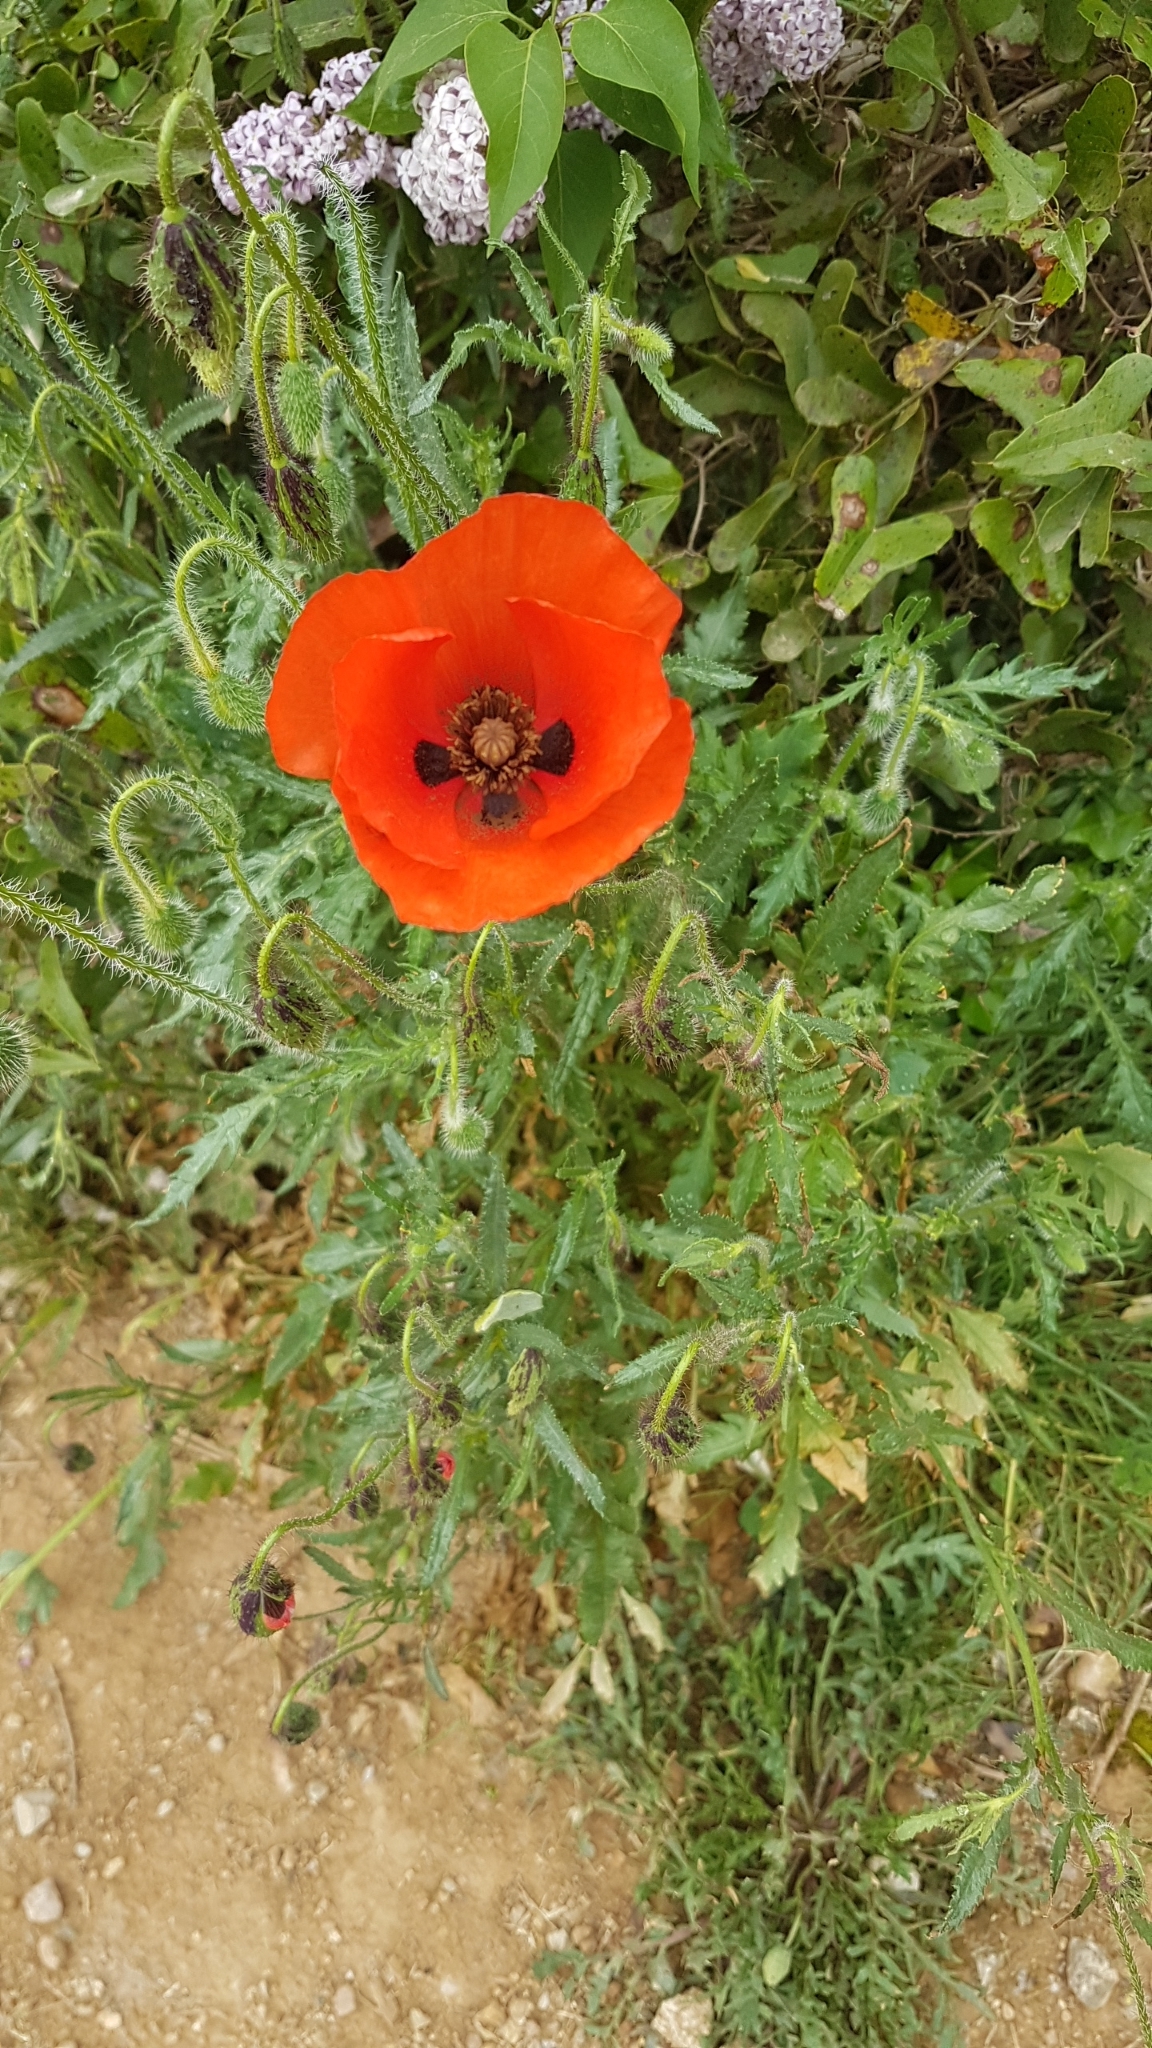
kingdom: Plantae
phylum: Tracheophyta
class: Magnoliopsida
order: Ranunculales
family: Papaveraceae
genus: Papaver
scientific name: Papaver rhoeas
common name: Corn poppy
